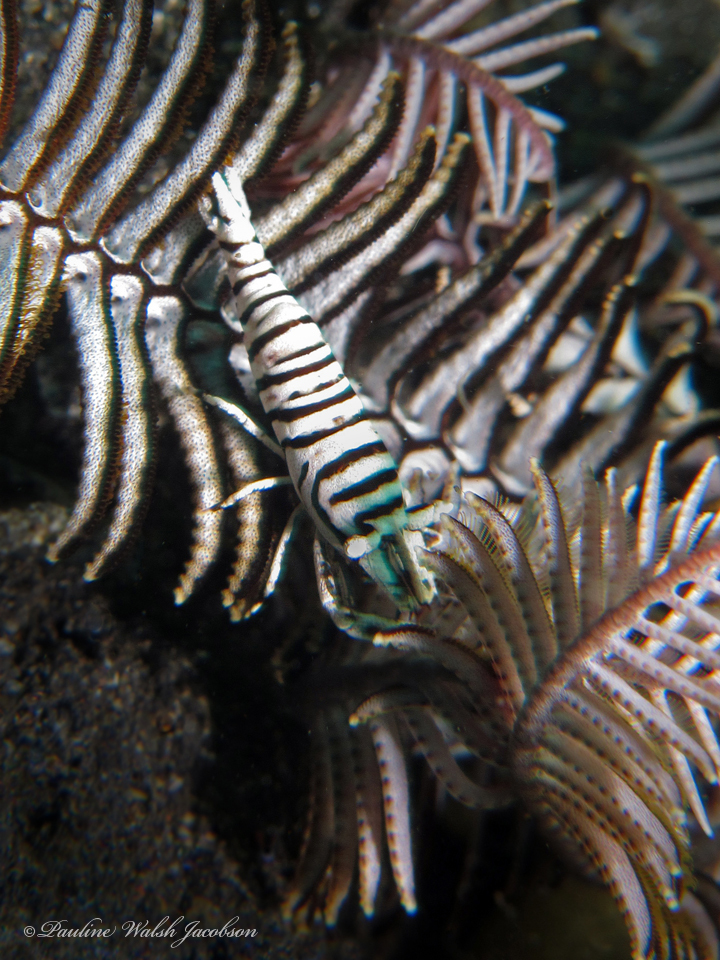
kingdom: Animalia
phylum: Arthropoda
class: Malacostraca
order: Decapoda
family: Palaemonidae
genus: Laomenes
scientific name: Laomenes amboinensis
